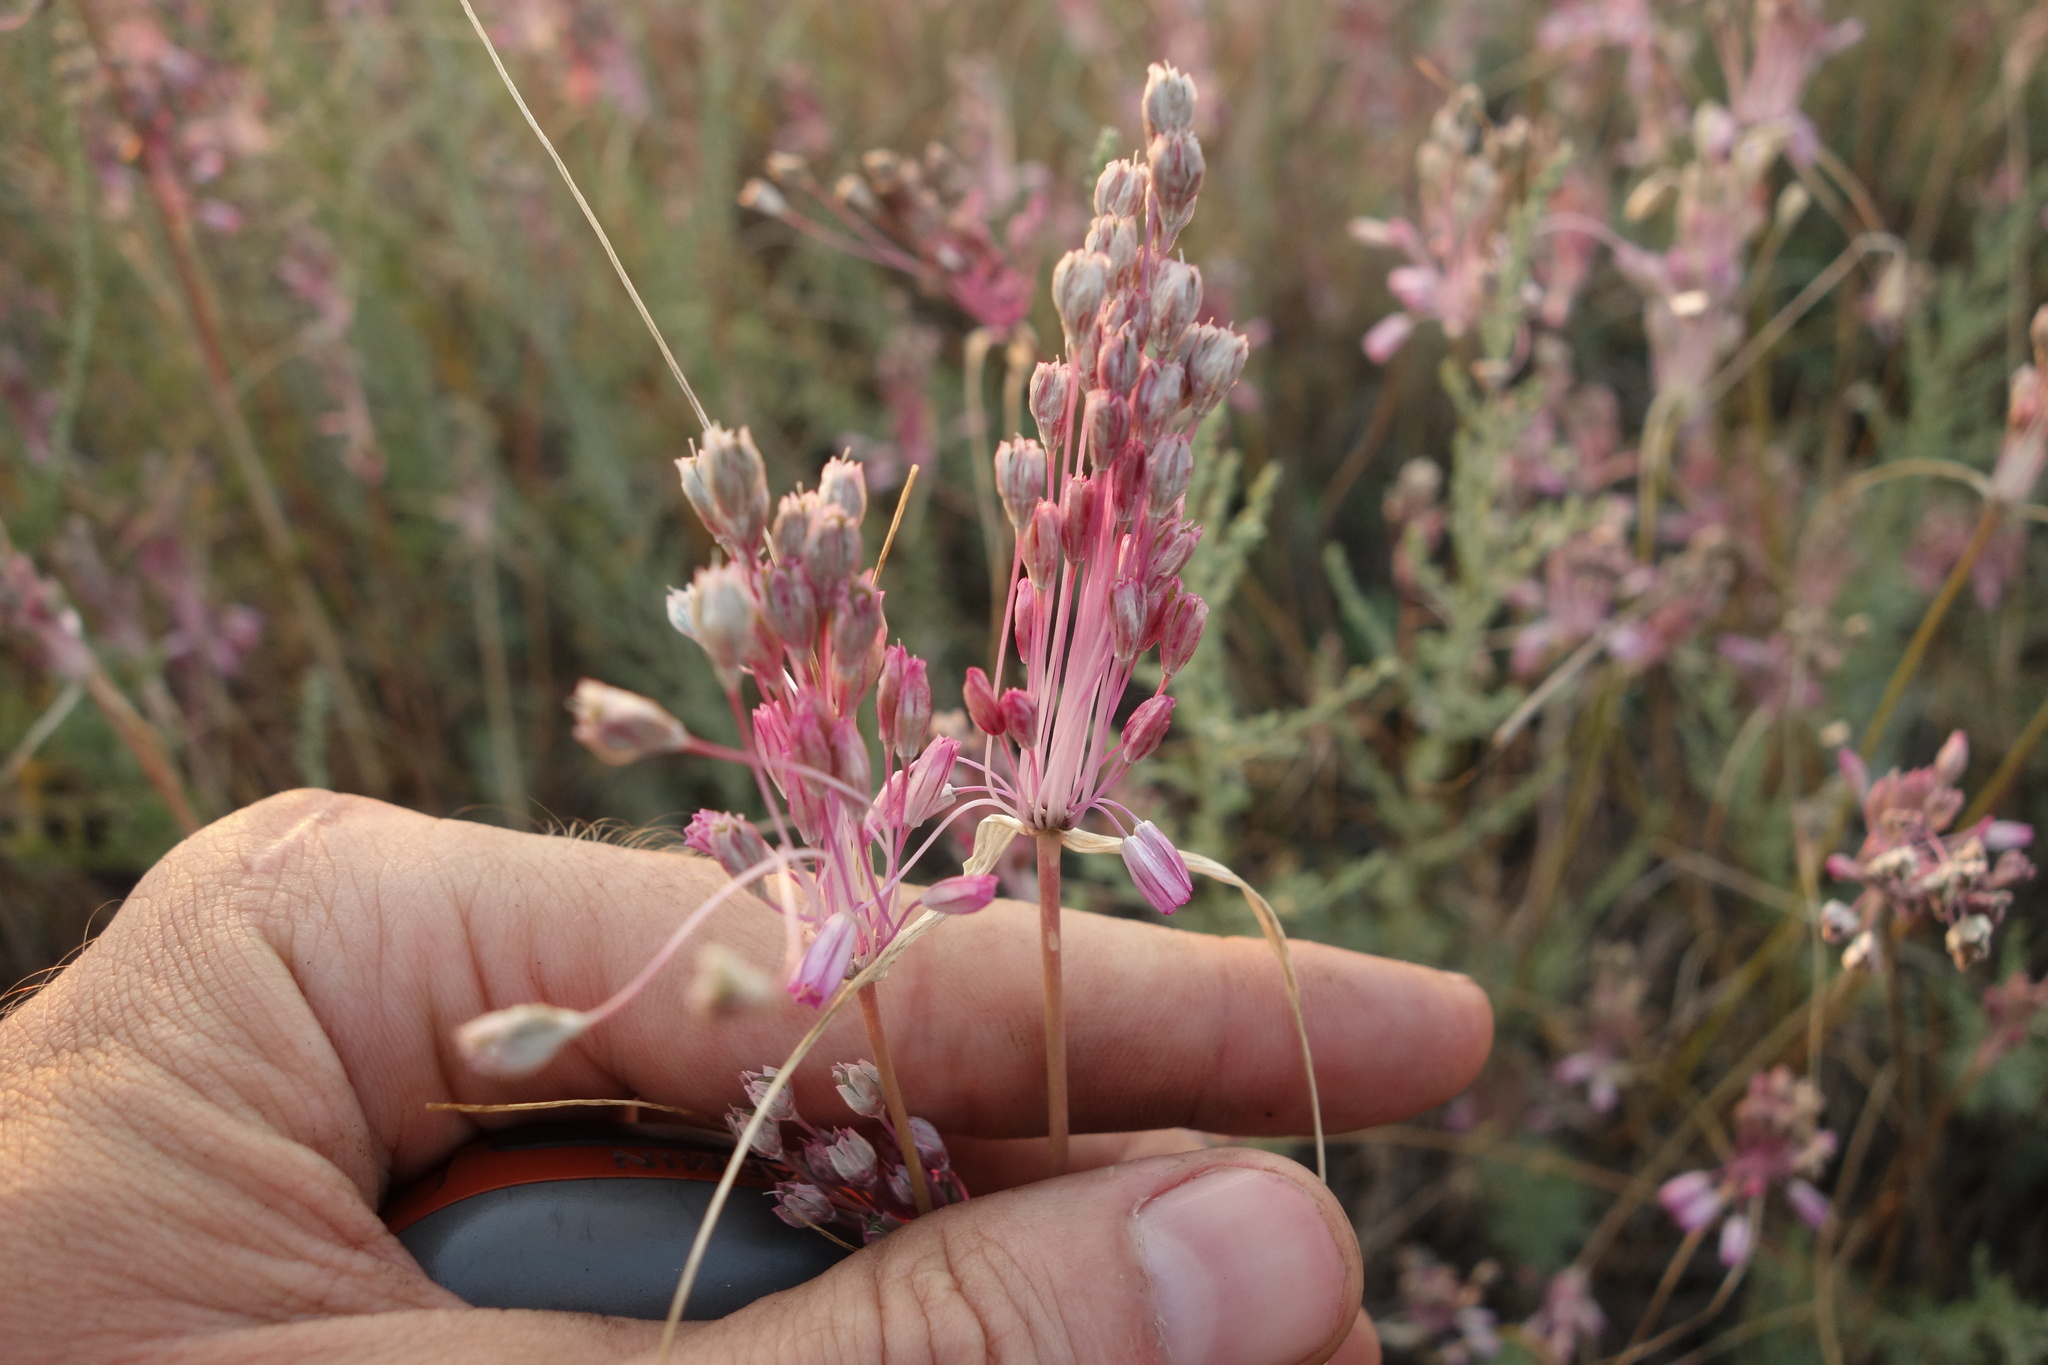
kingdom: Plantae
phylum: Tracheophyta
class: Liliopsida
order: Asparagales
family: Amaryllidaceae
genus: Allium
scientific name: Allium praescissum
